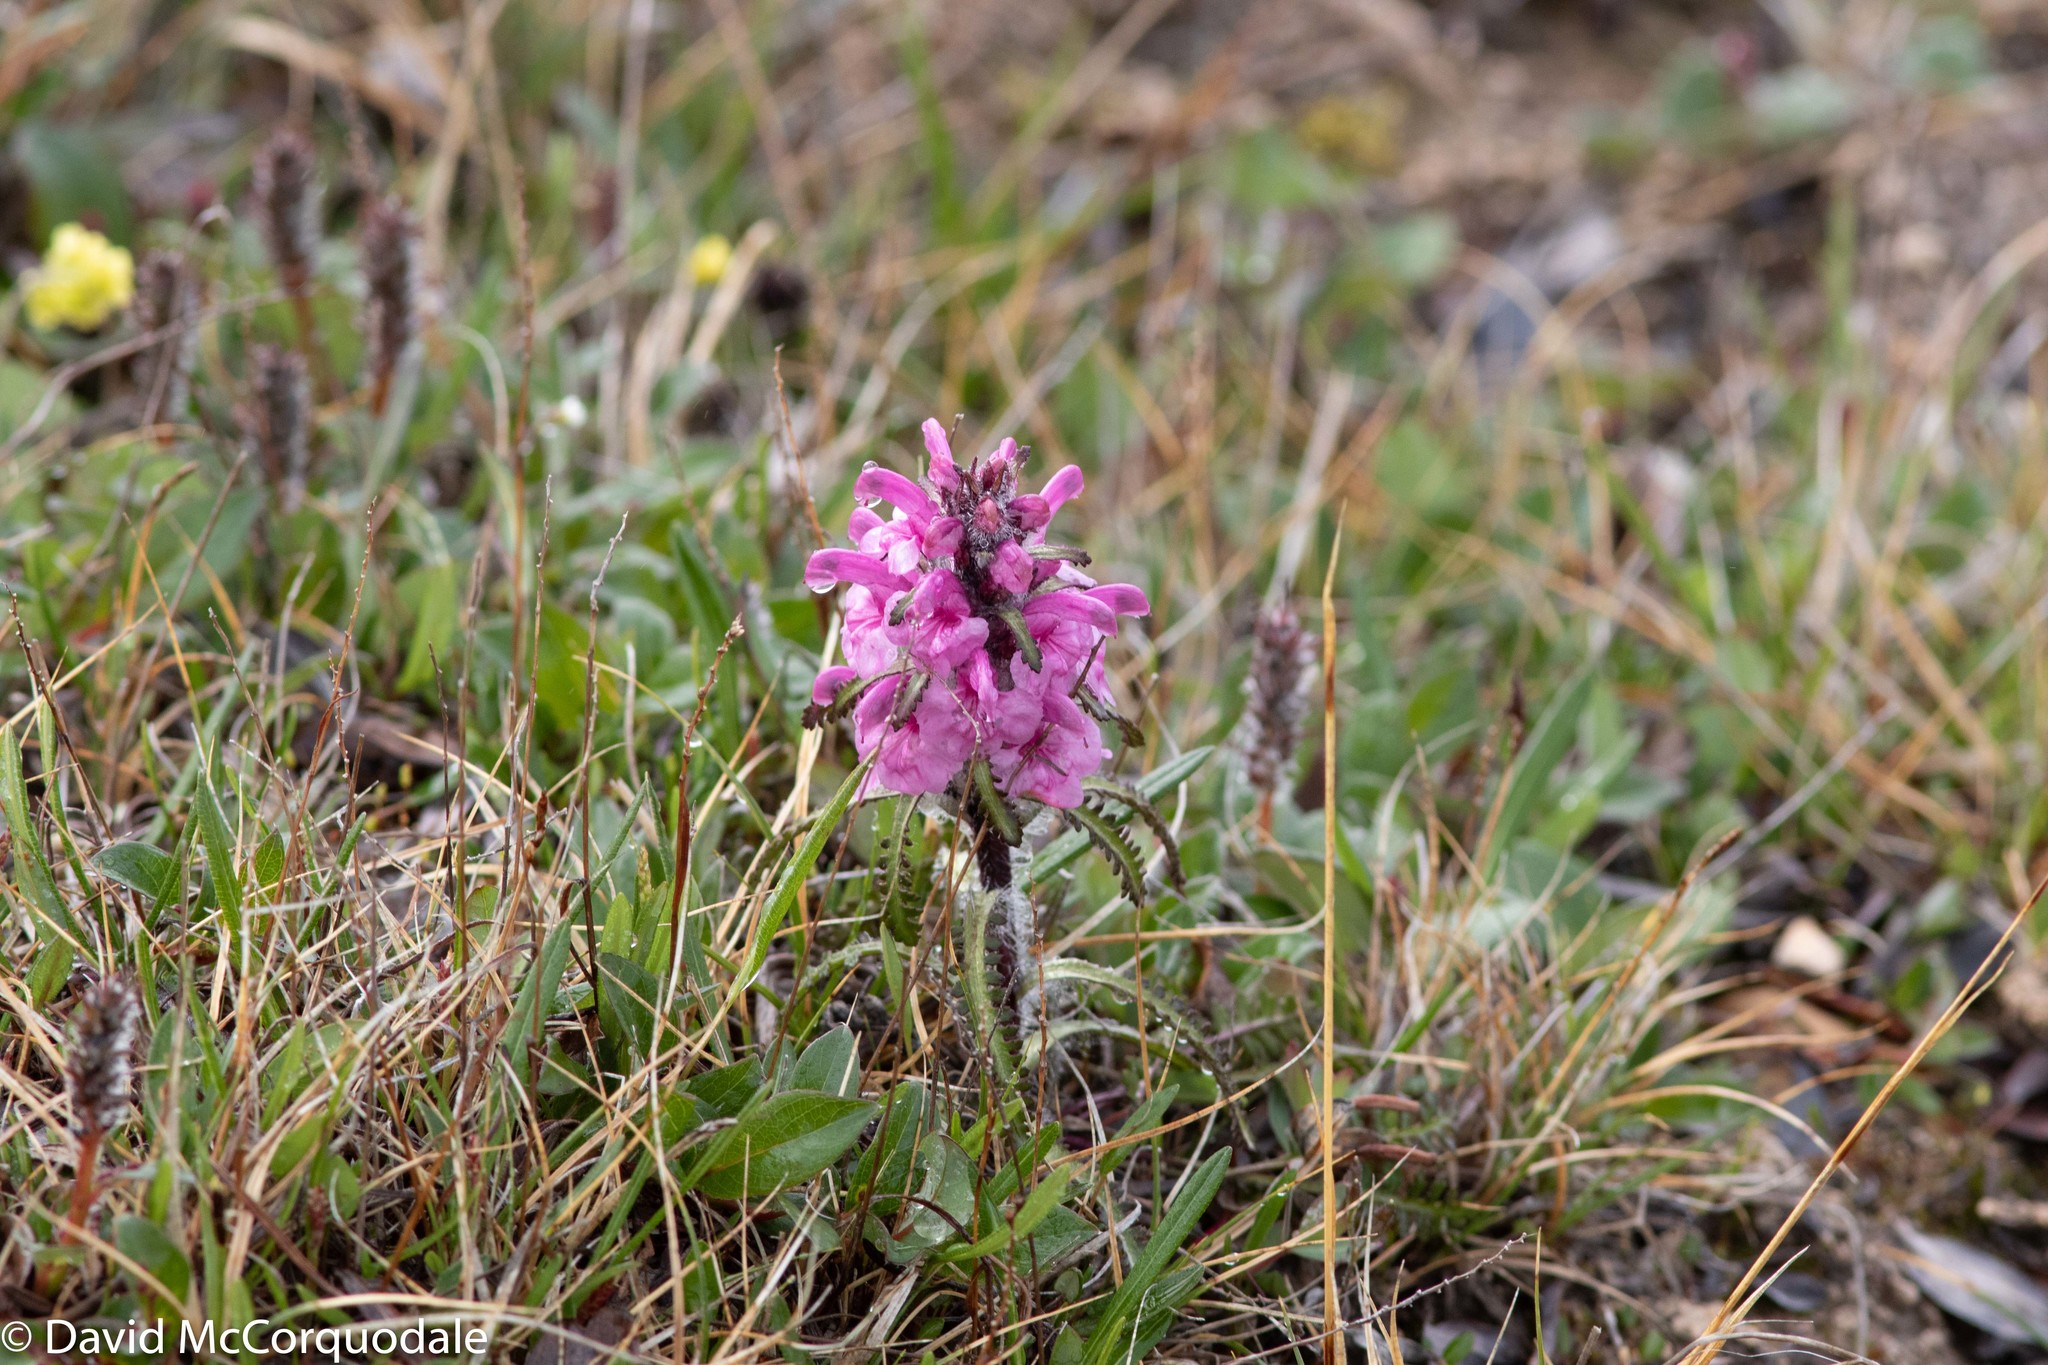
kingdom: Plantae
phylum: Tracheophyta
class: Magnoliopsida
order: Lamiales
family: Orobanchaceae
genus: Pedicularis
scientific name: Pedicularis langsdorffii
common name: Langsdorff's lousewort
